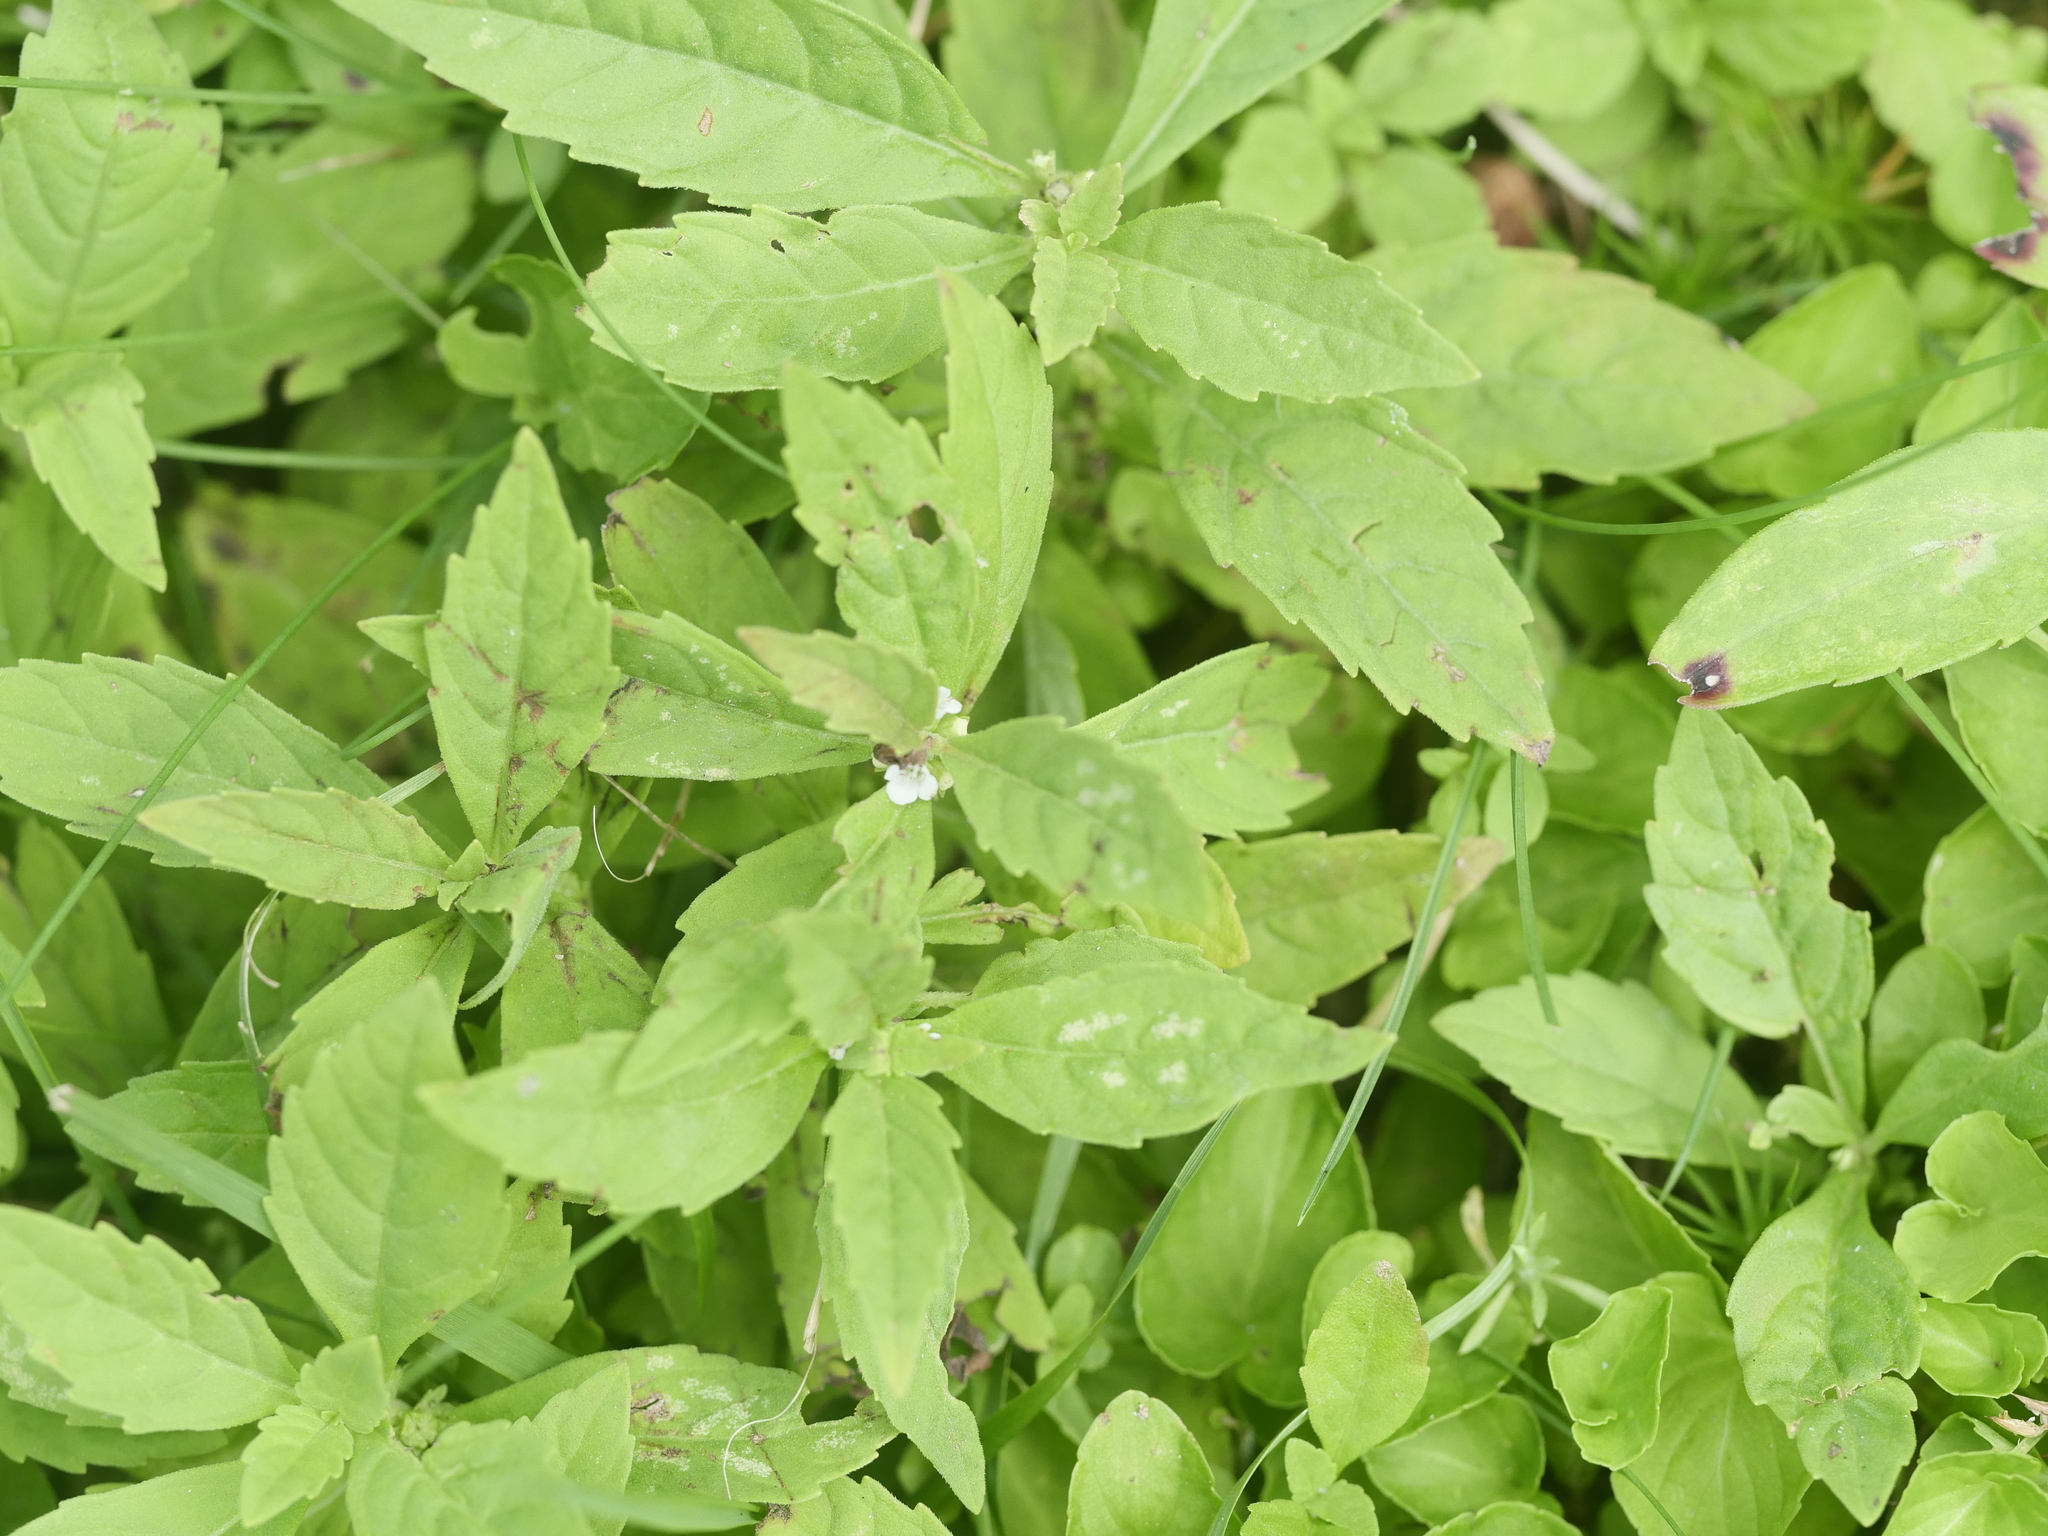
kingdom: Plantae
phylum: Tracheophyta
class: Magnoliopsida
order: Lamiales
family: Lamiaceae
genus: Lycopus
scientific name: Lycopus uniflorus
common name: Northern bugleweed
